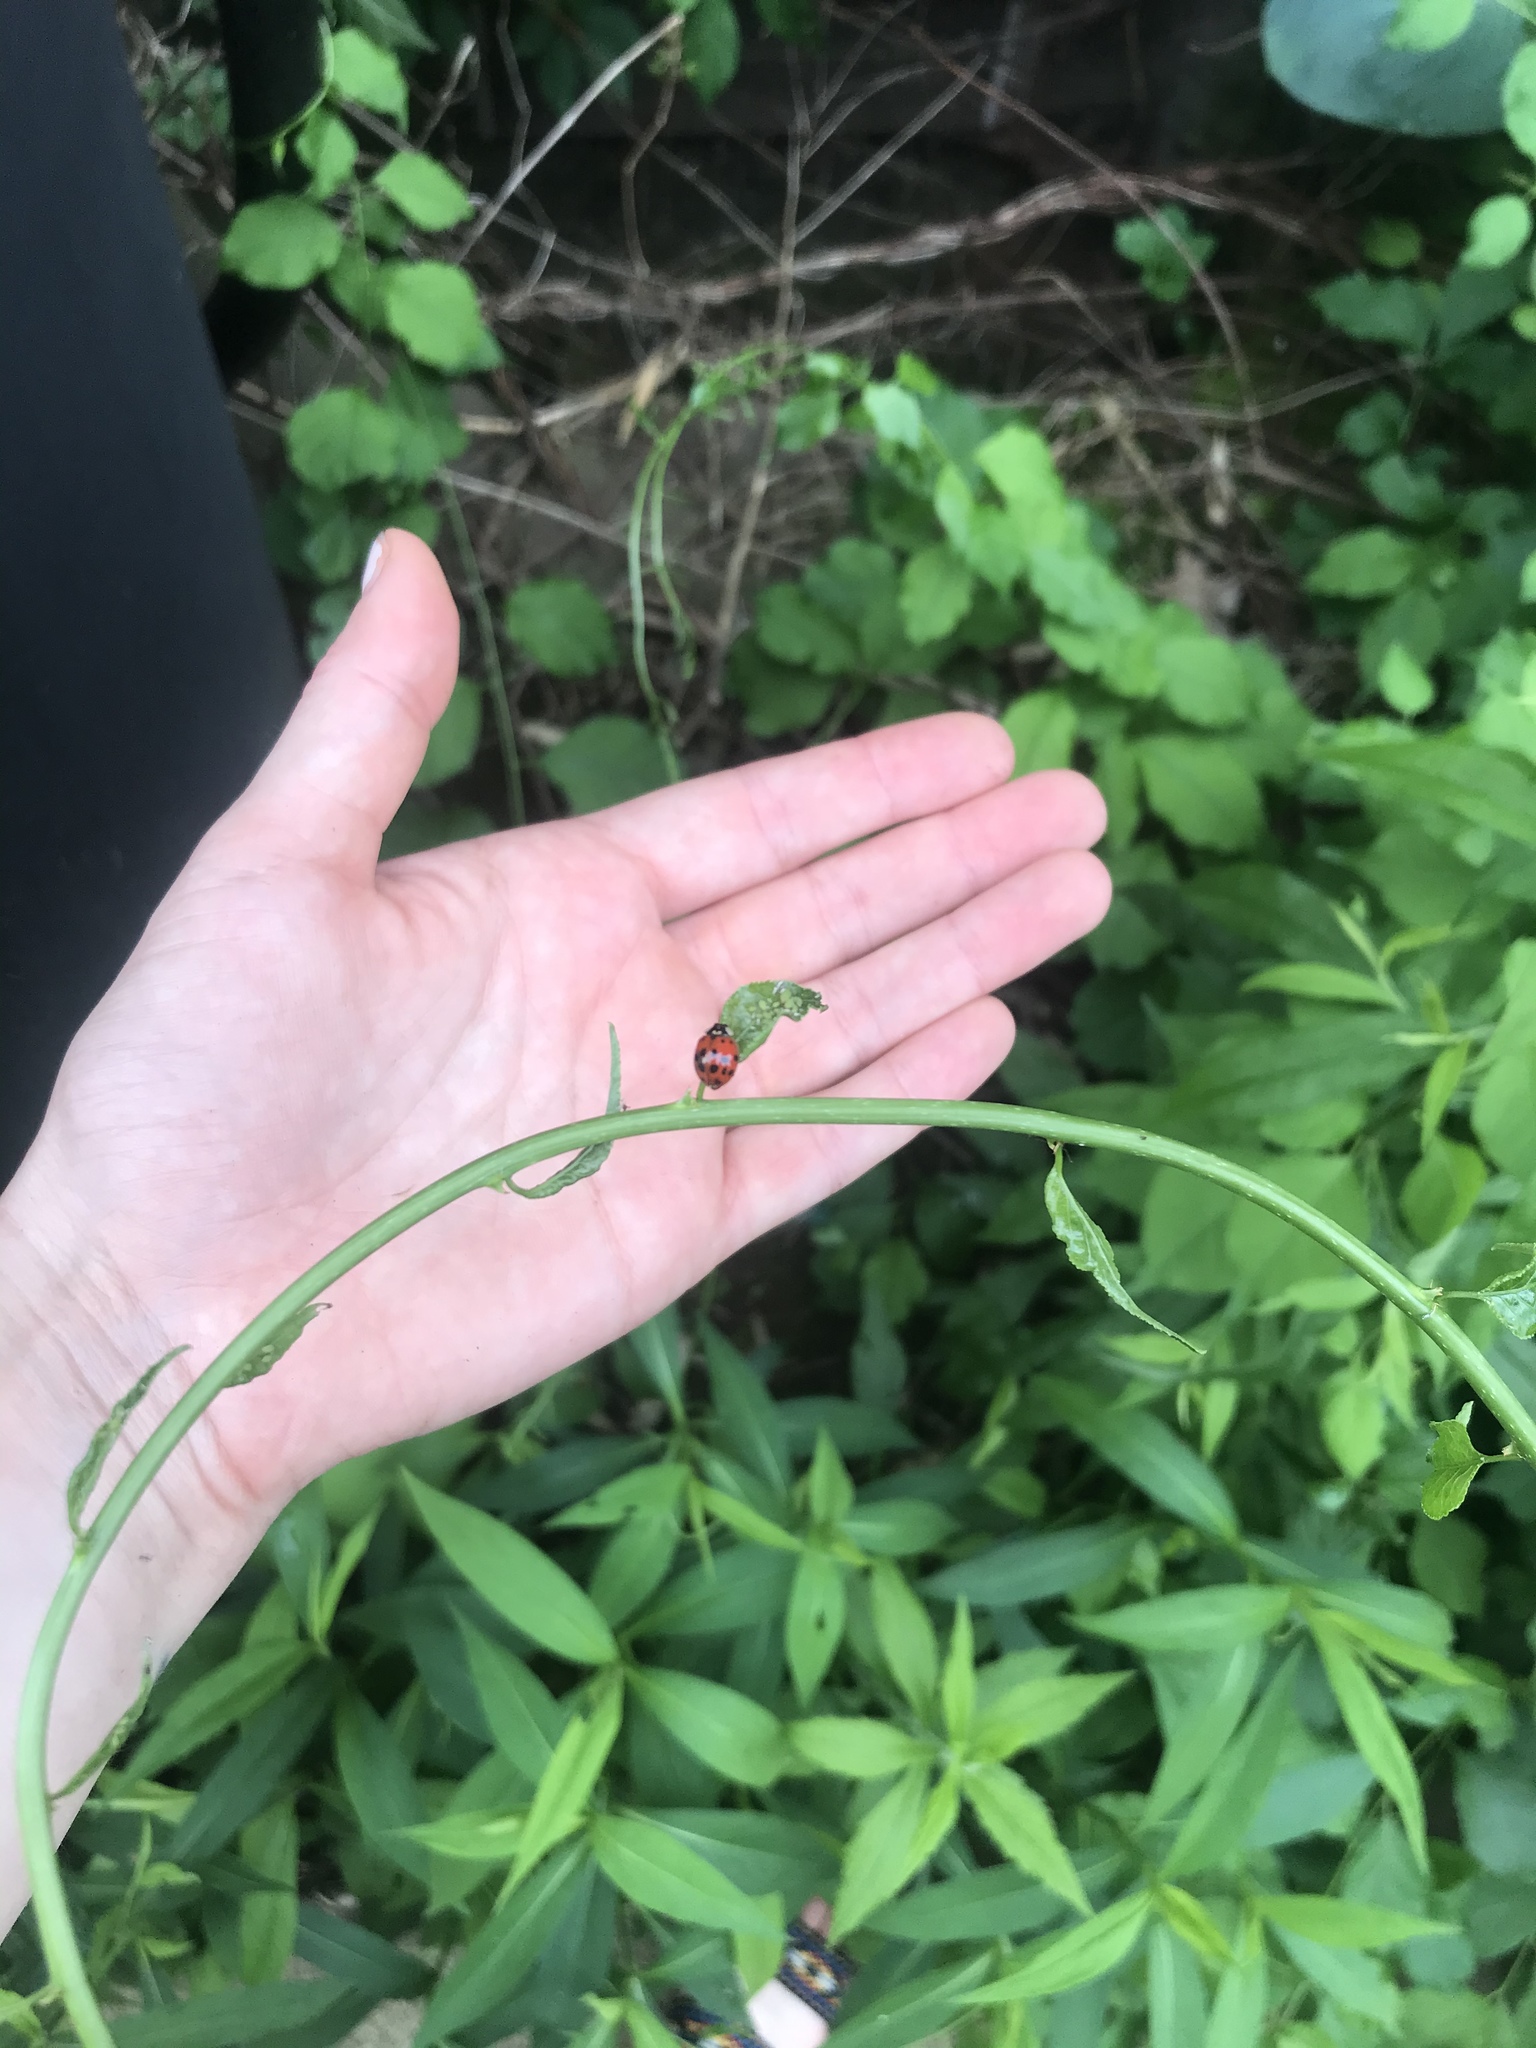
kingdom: Animalia
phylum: Arthropoda
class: Insecta
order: Coleoptera
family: Coccinellidae
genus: Harmonia
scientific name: Harmonia axyridis
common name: Harlequin ladybird
